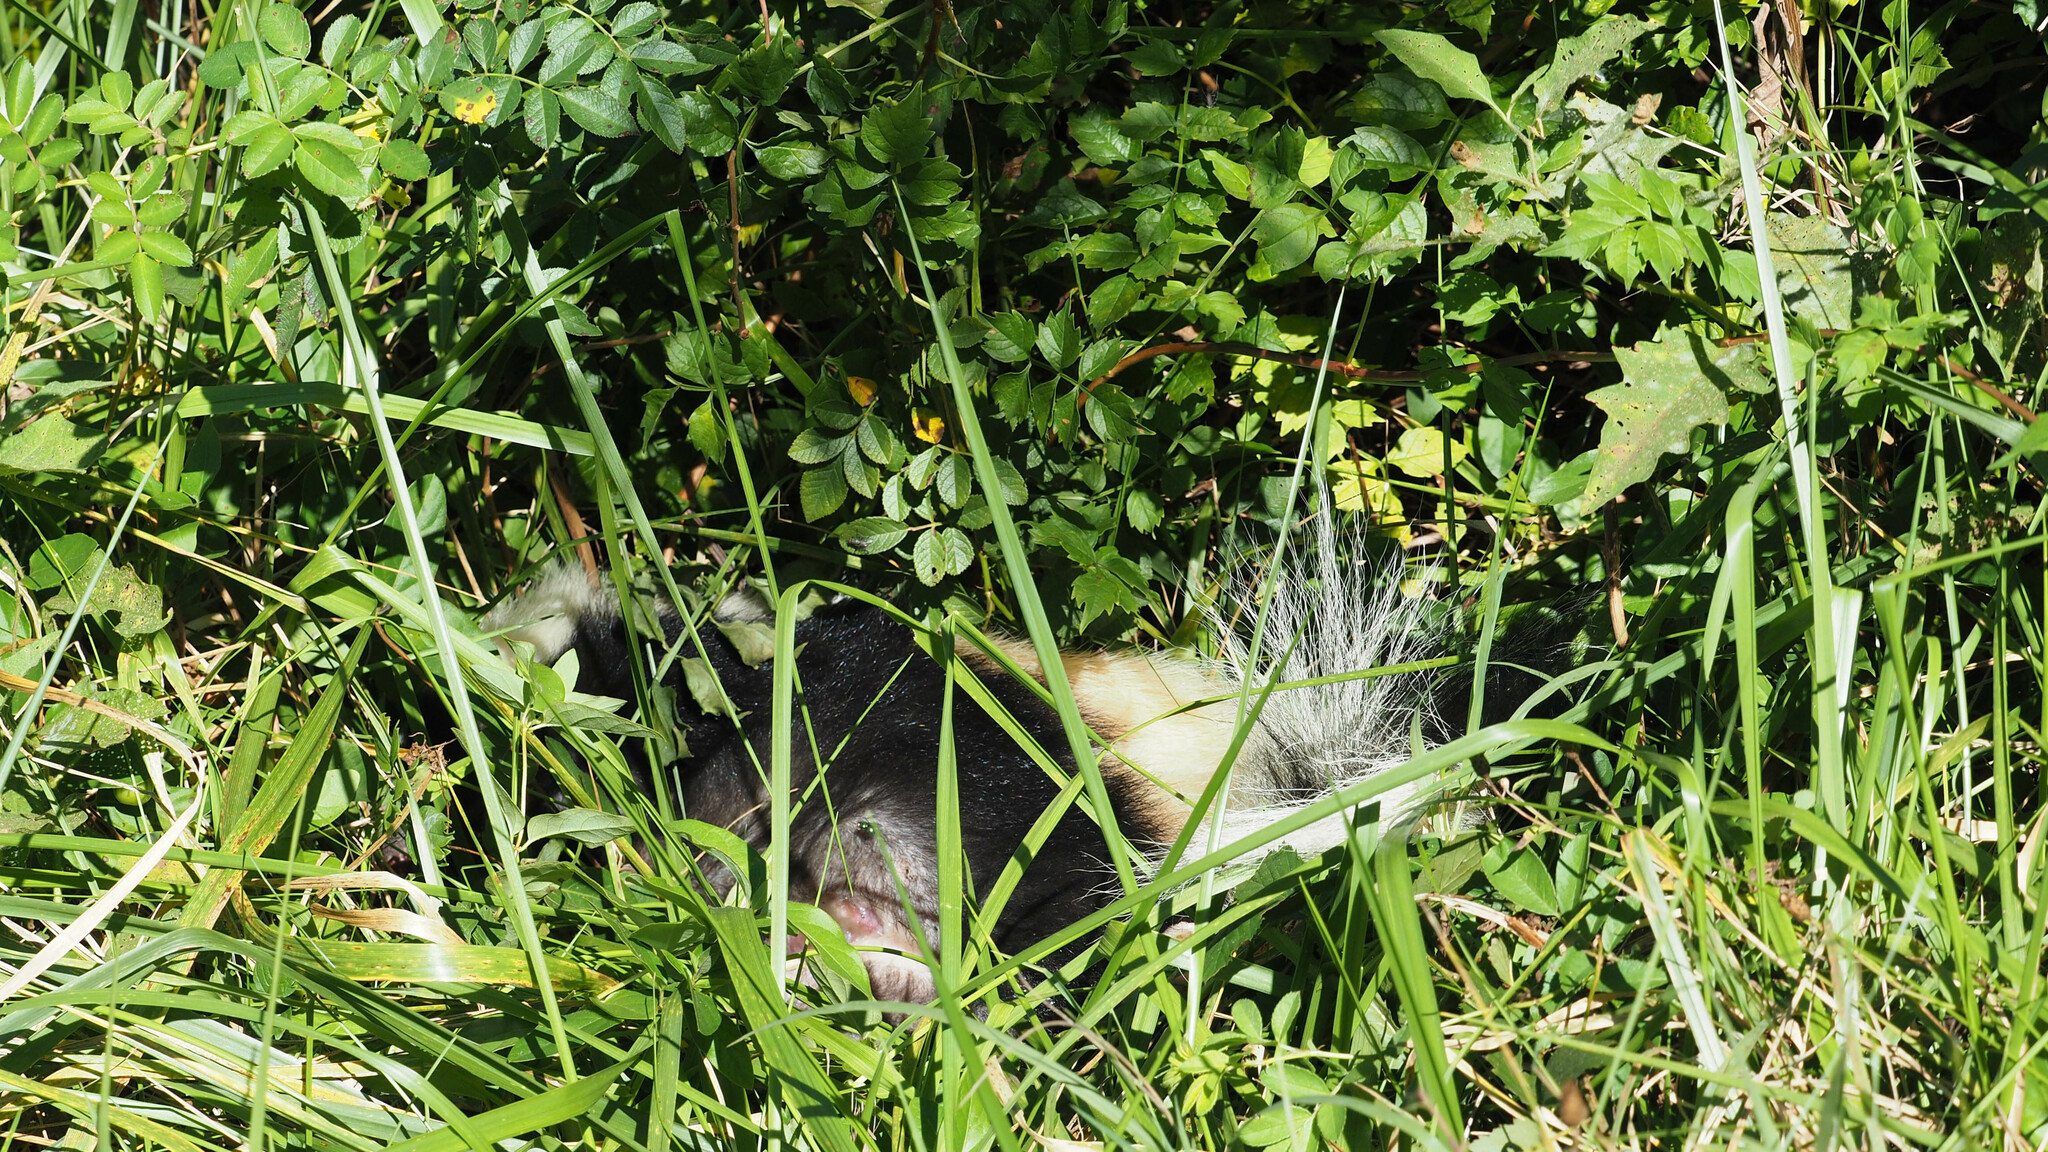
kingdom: Animalia
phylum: Chordata
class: Mammalia
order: Carnivora
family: Mephitidae
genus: Mephitis
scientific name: Mephitis mephitis
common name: Striped skunk
